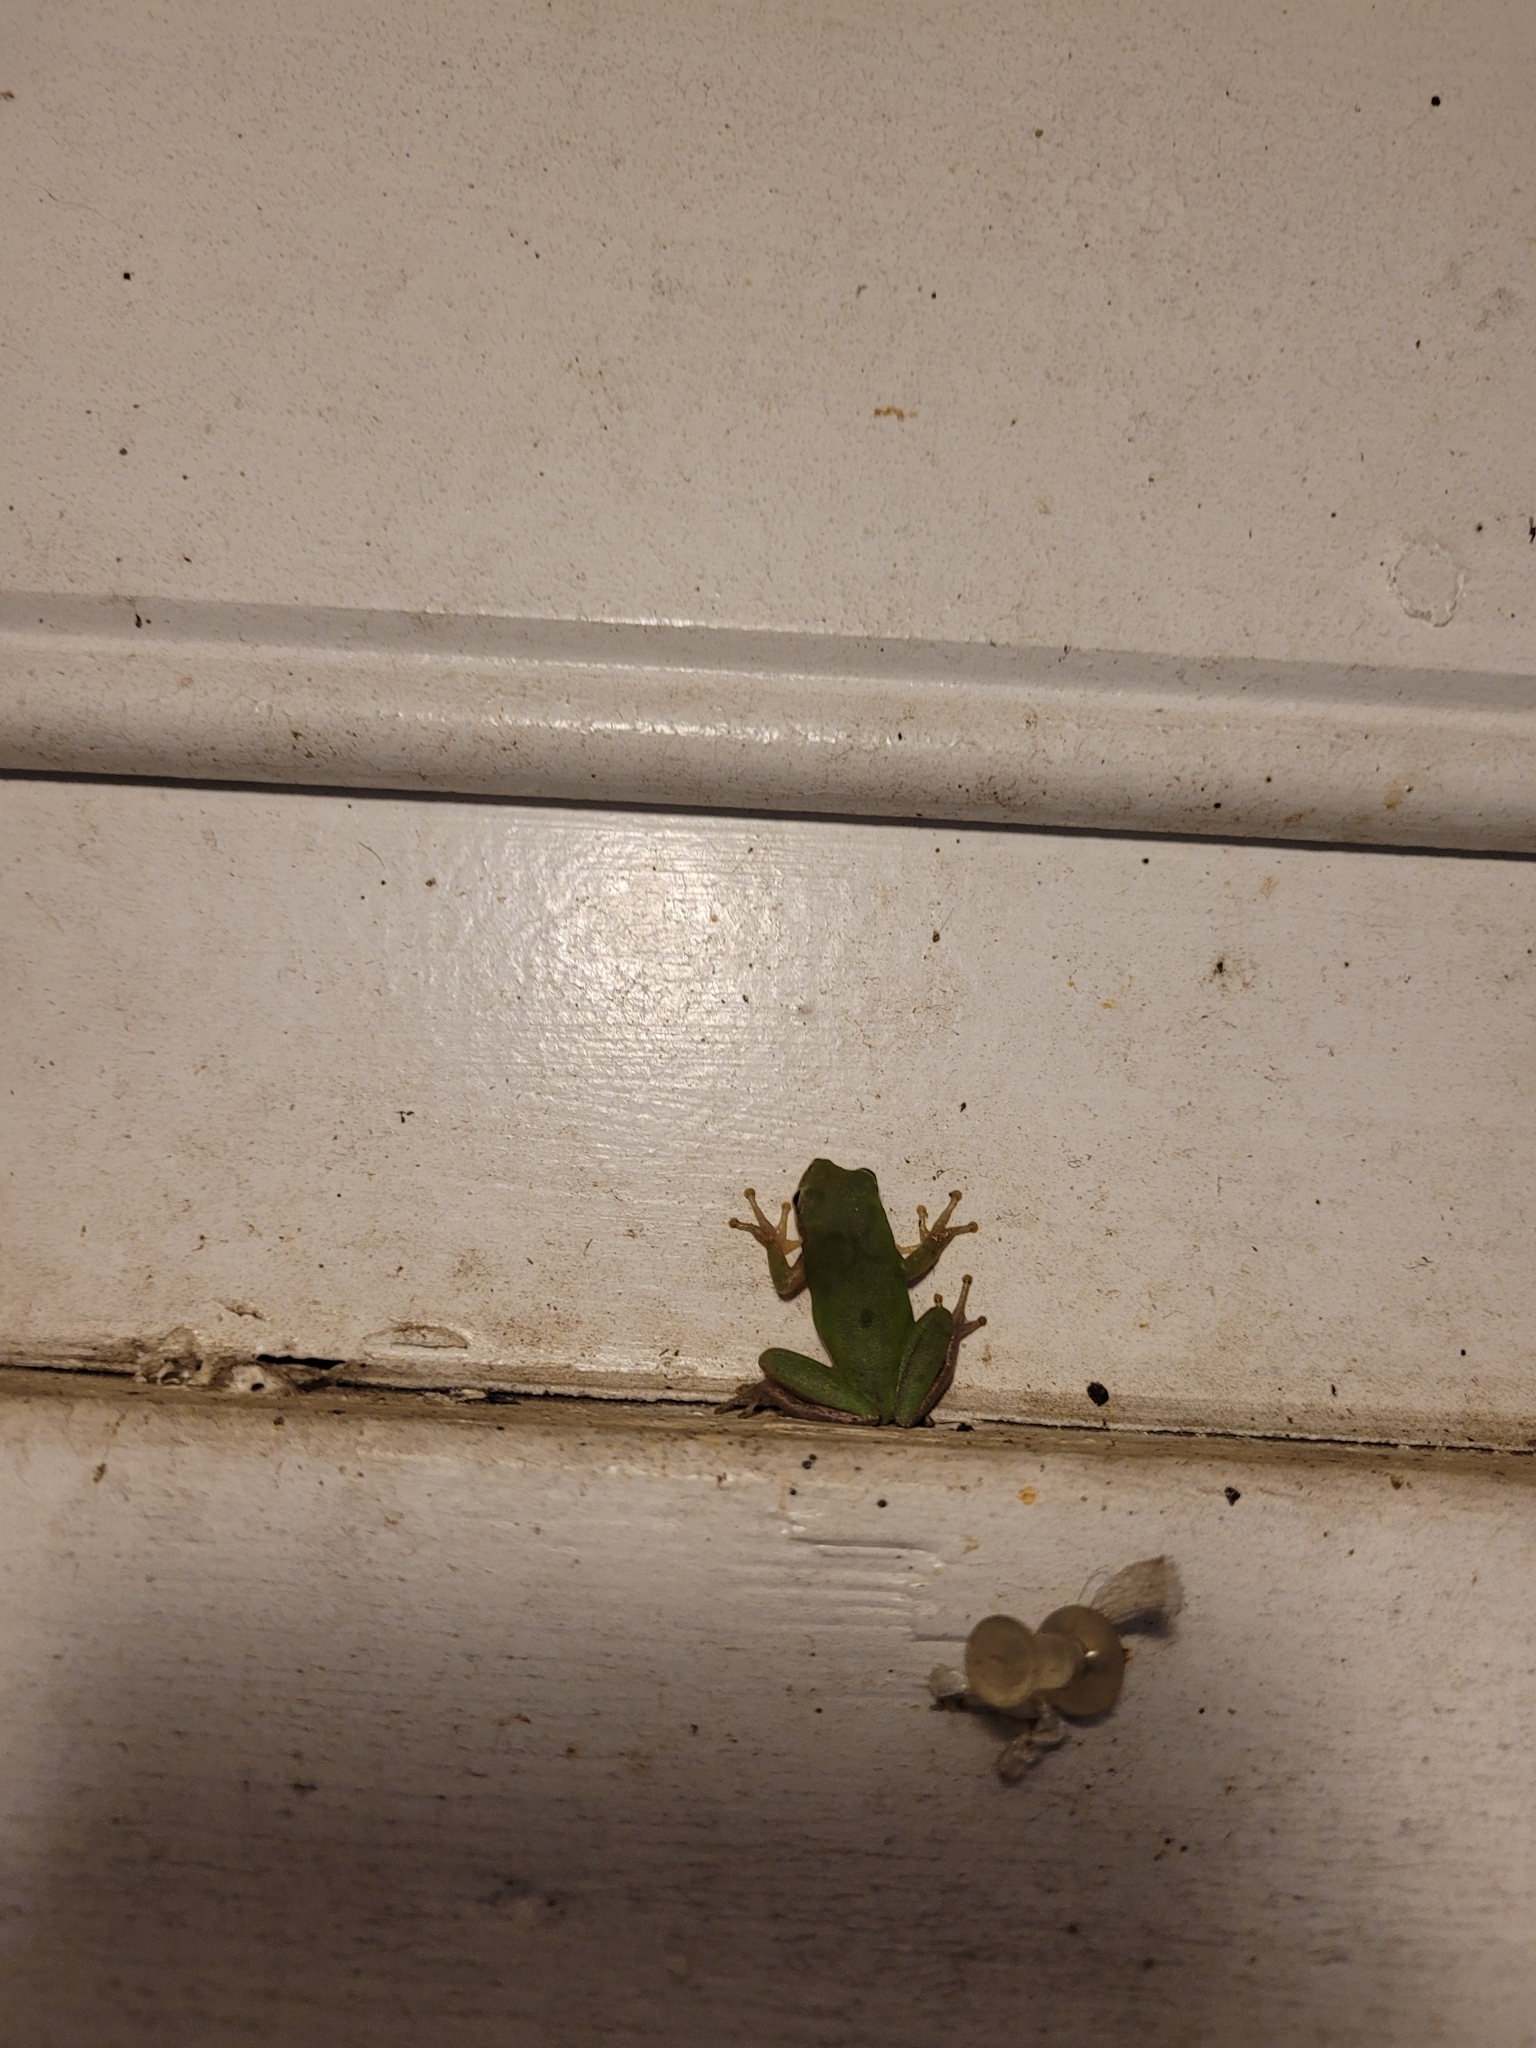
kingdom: Animalia
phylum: Chordata
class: Amphibia
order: Anura
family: Hylidae
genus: Dryophytes
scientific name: Dryophytes squirellus
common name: Squirrel treefrog
